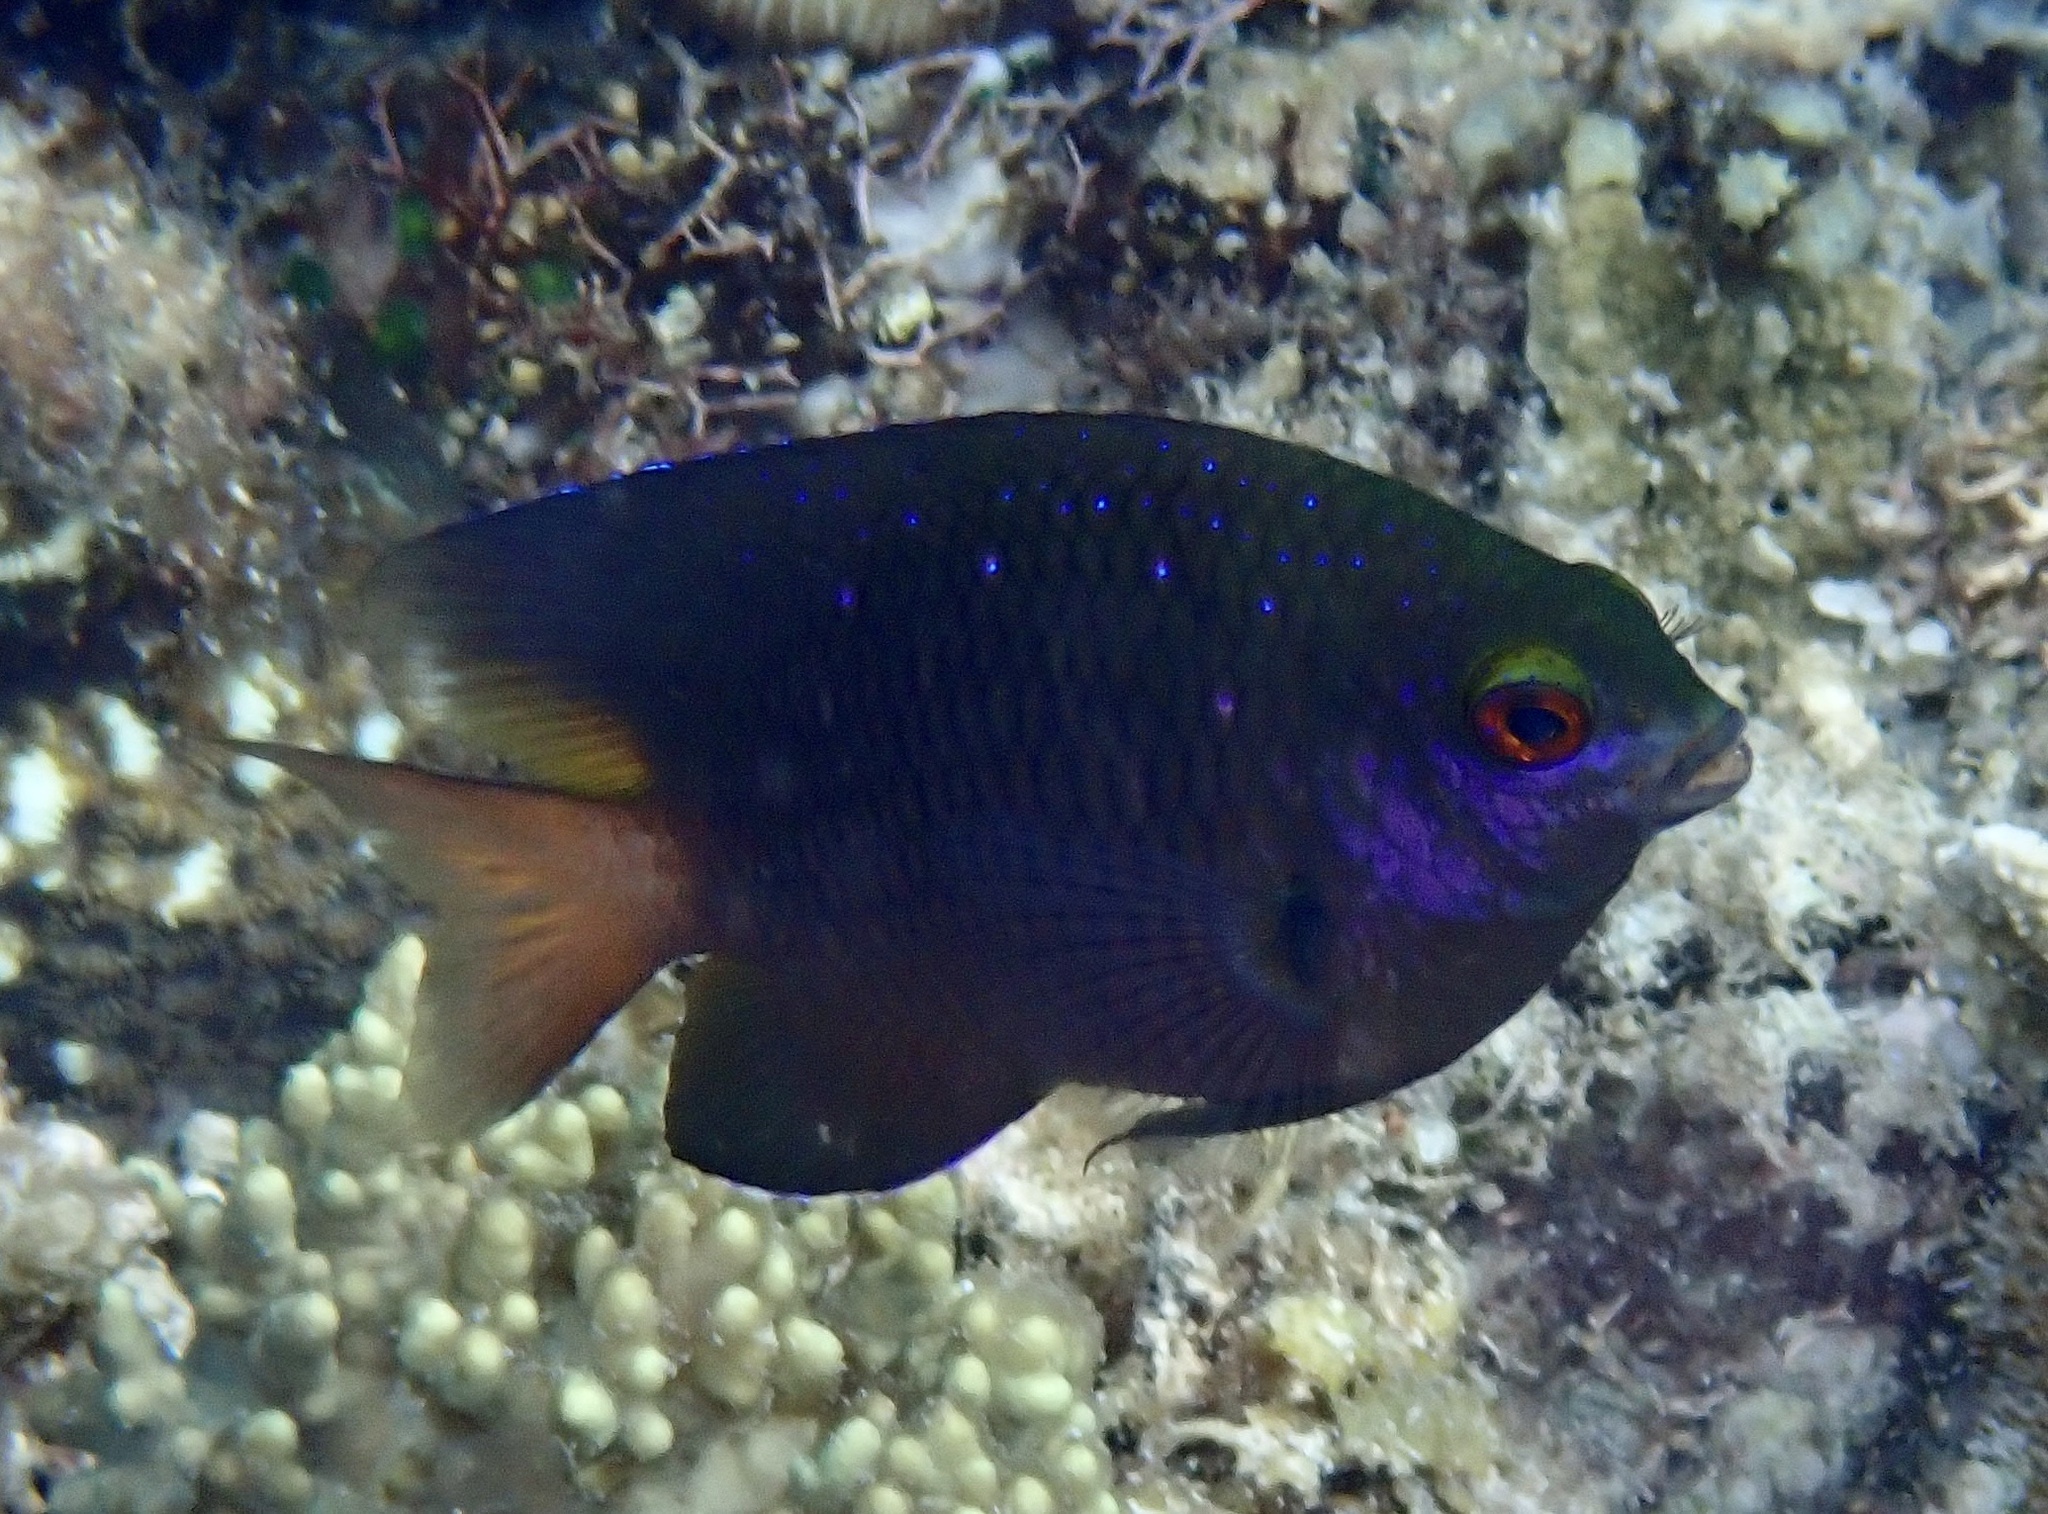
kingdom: Animalia
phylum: Chordata
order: Perciformes
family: Pomacentridae
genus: Plectroglyphidodon
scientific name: Plectroglyphidodon lacrymatus
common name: Jewel damsel
